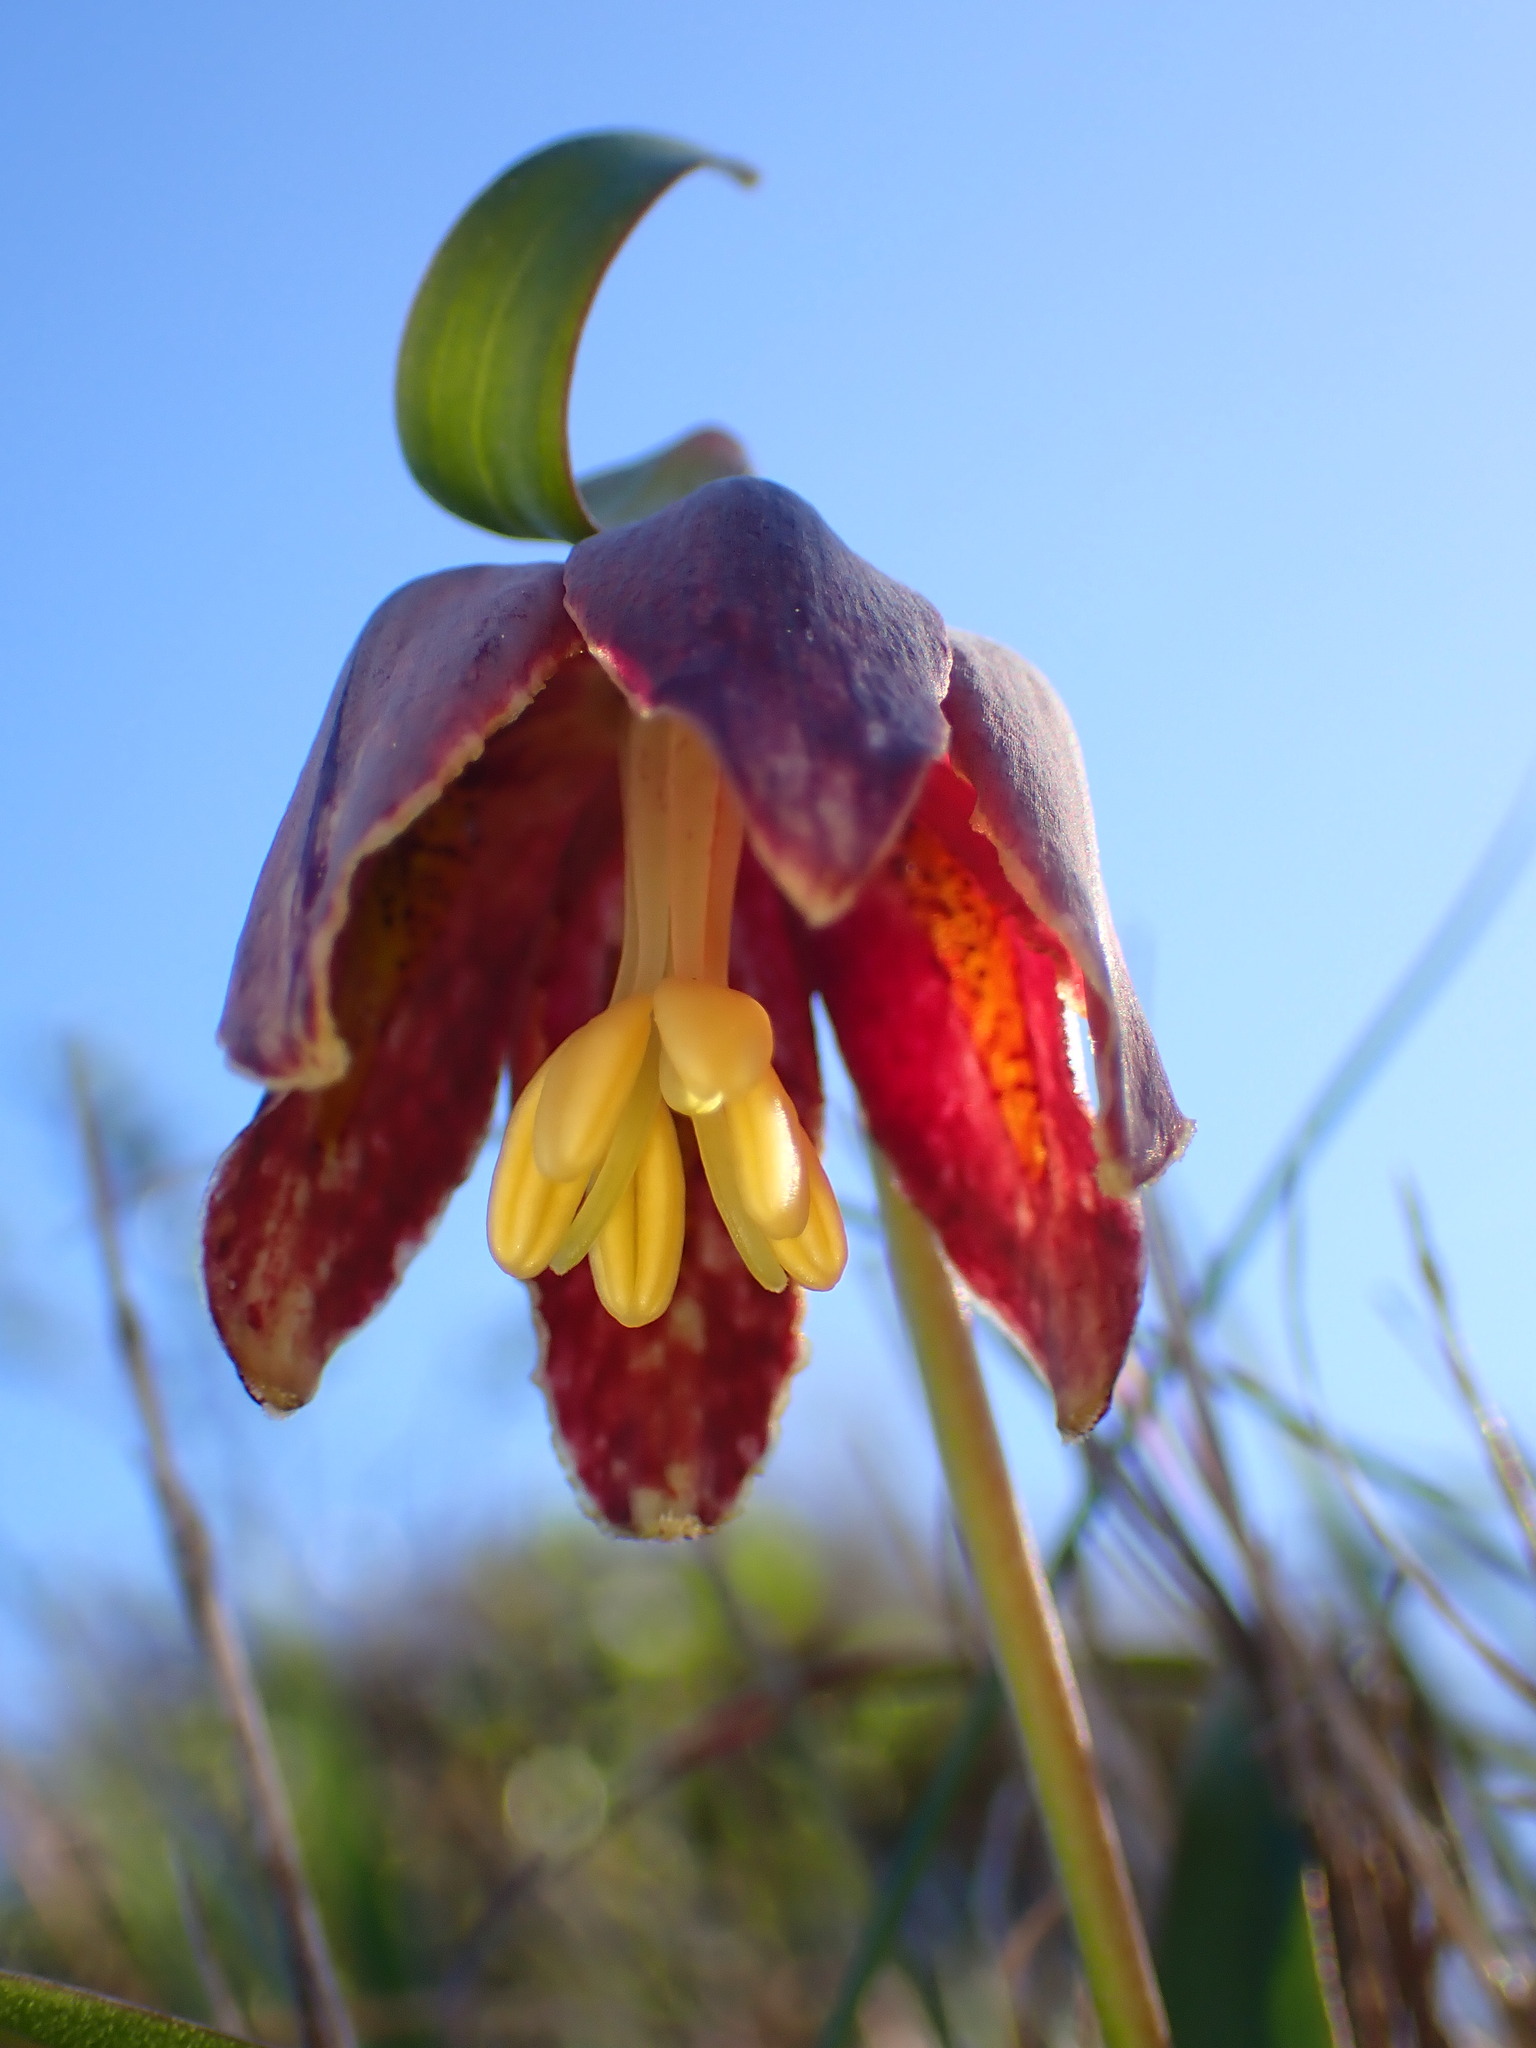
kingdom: Plantae
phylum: Tracheophyta
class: Liliopsida
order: Liliales
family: Liliaceae
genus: Fritillaria
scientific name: Fritillaria affinis
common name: Ojai fritillary
